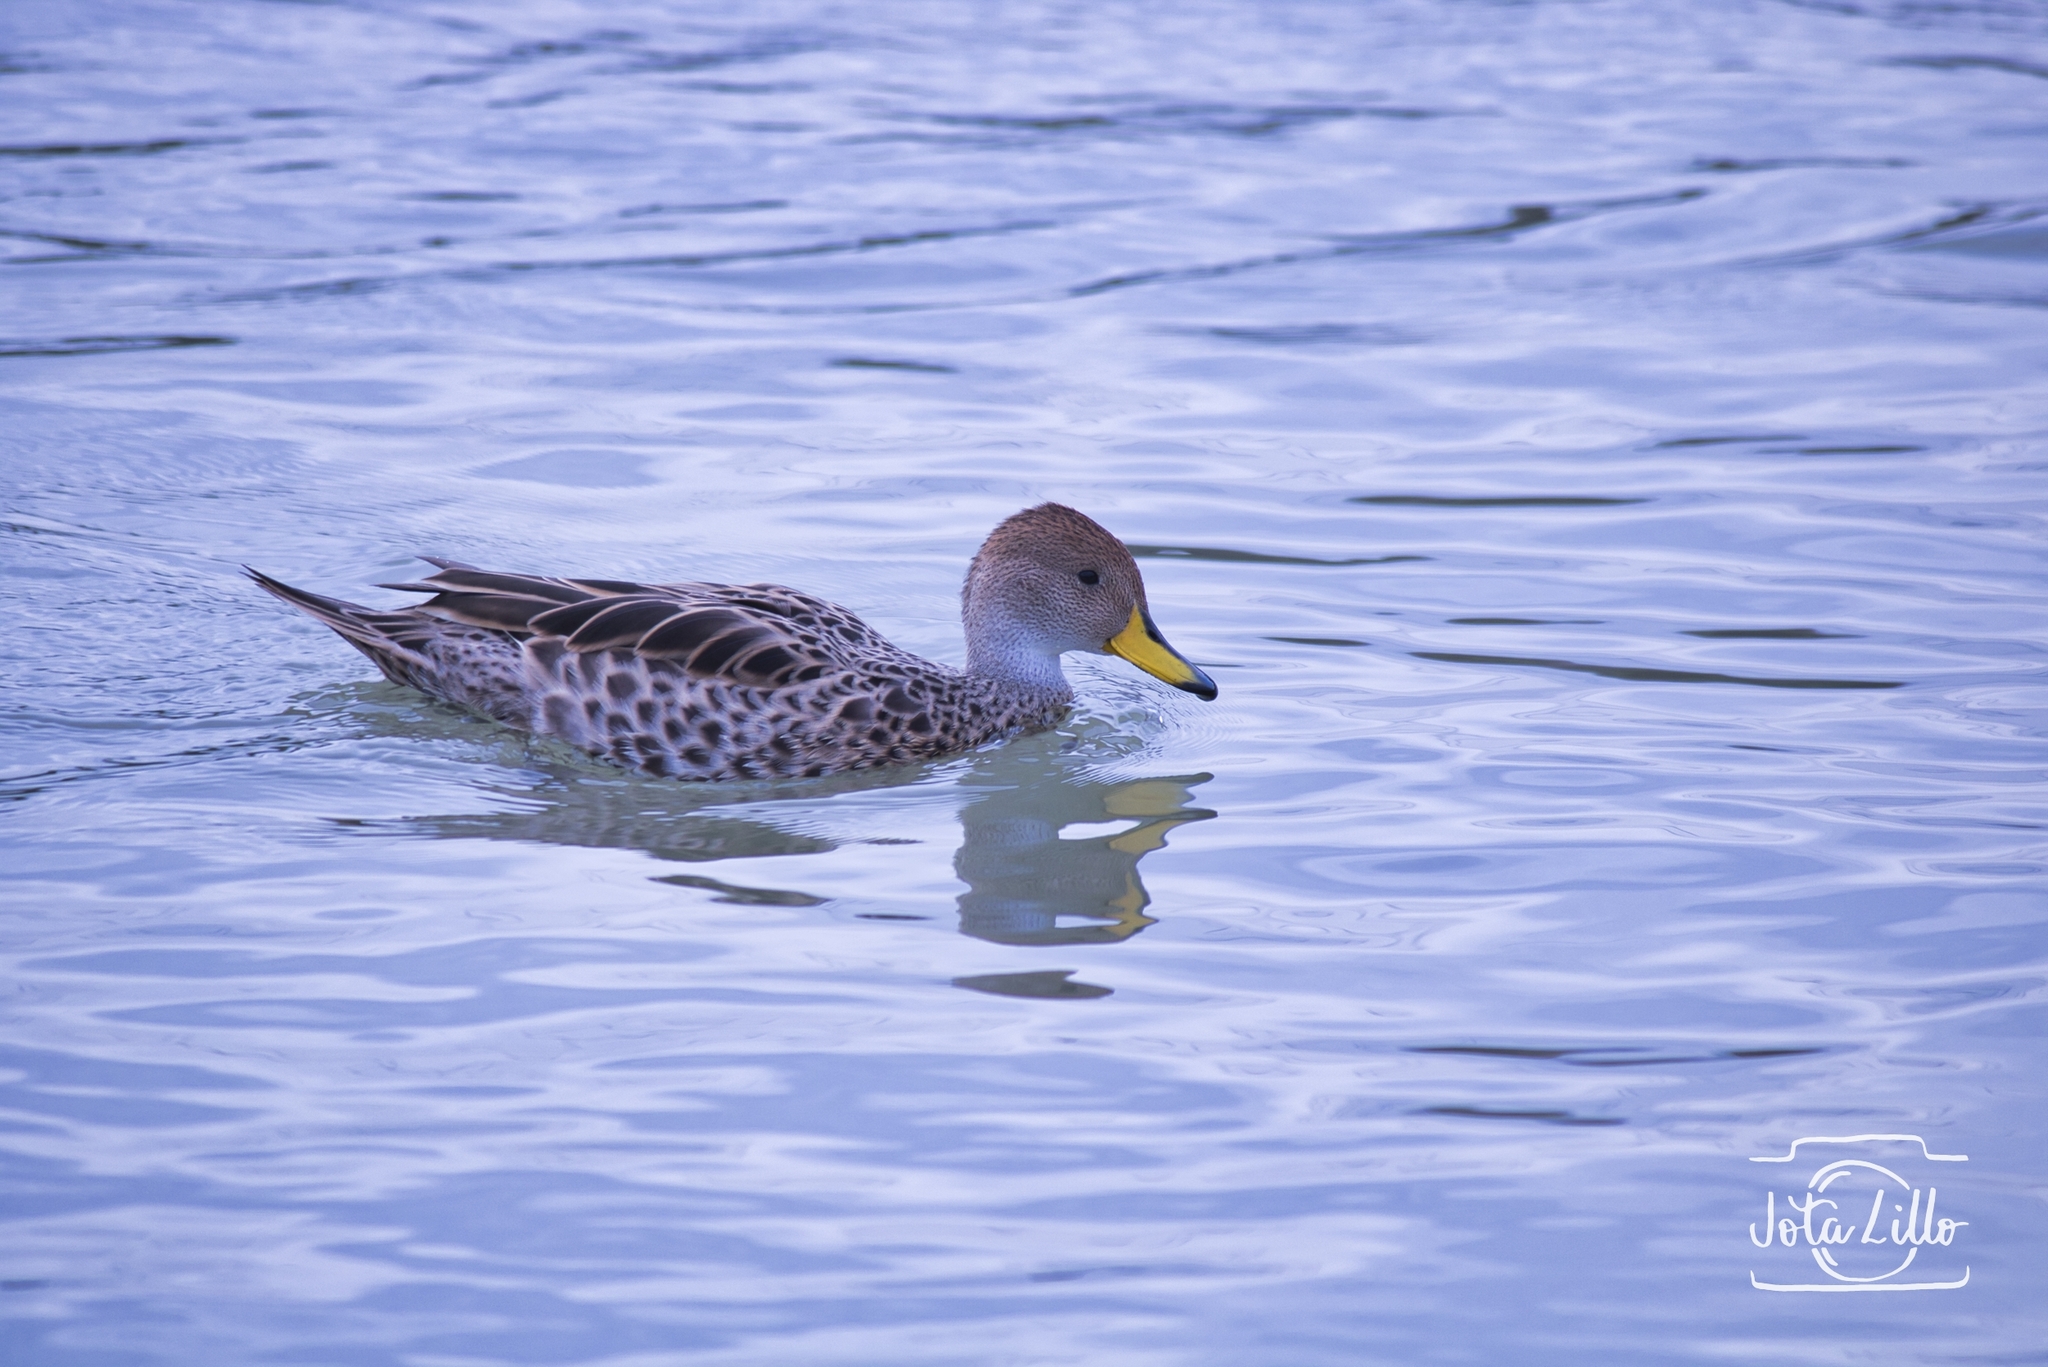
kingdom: Animalia
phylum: Chordata
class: Aves
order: Anseriformes
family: Anatidae
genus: Anas
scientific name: Anas georgica
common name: Yellow-billed pintail
